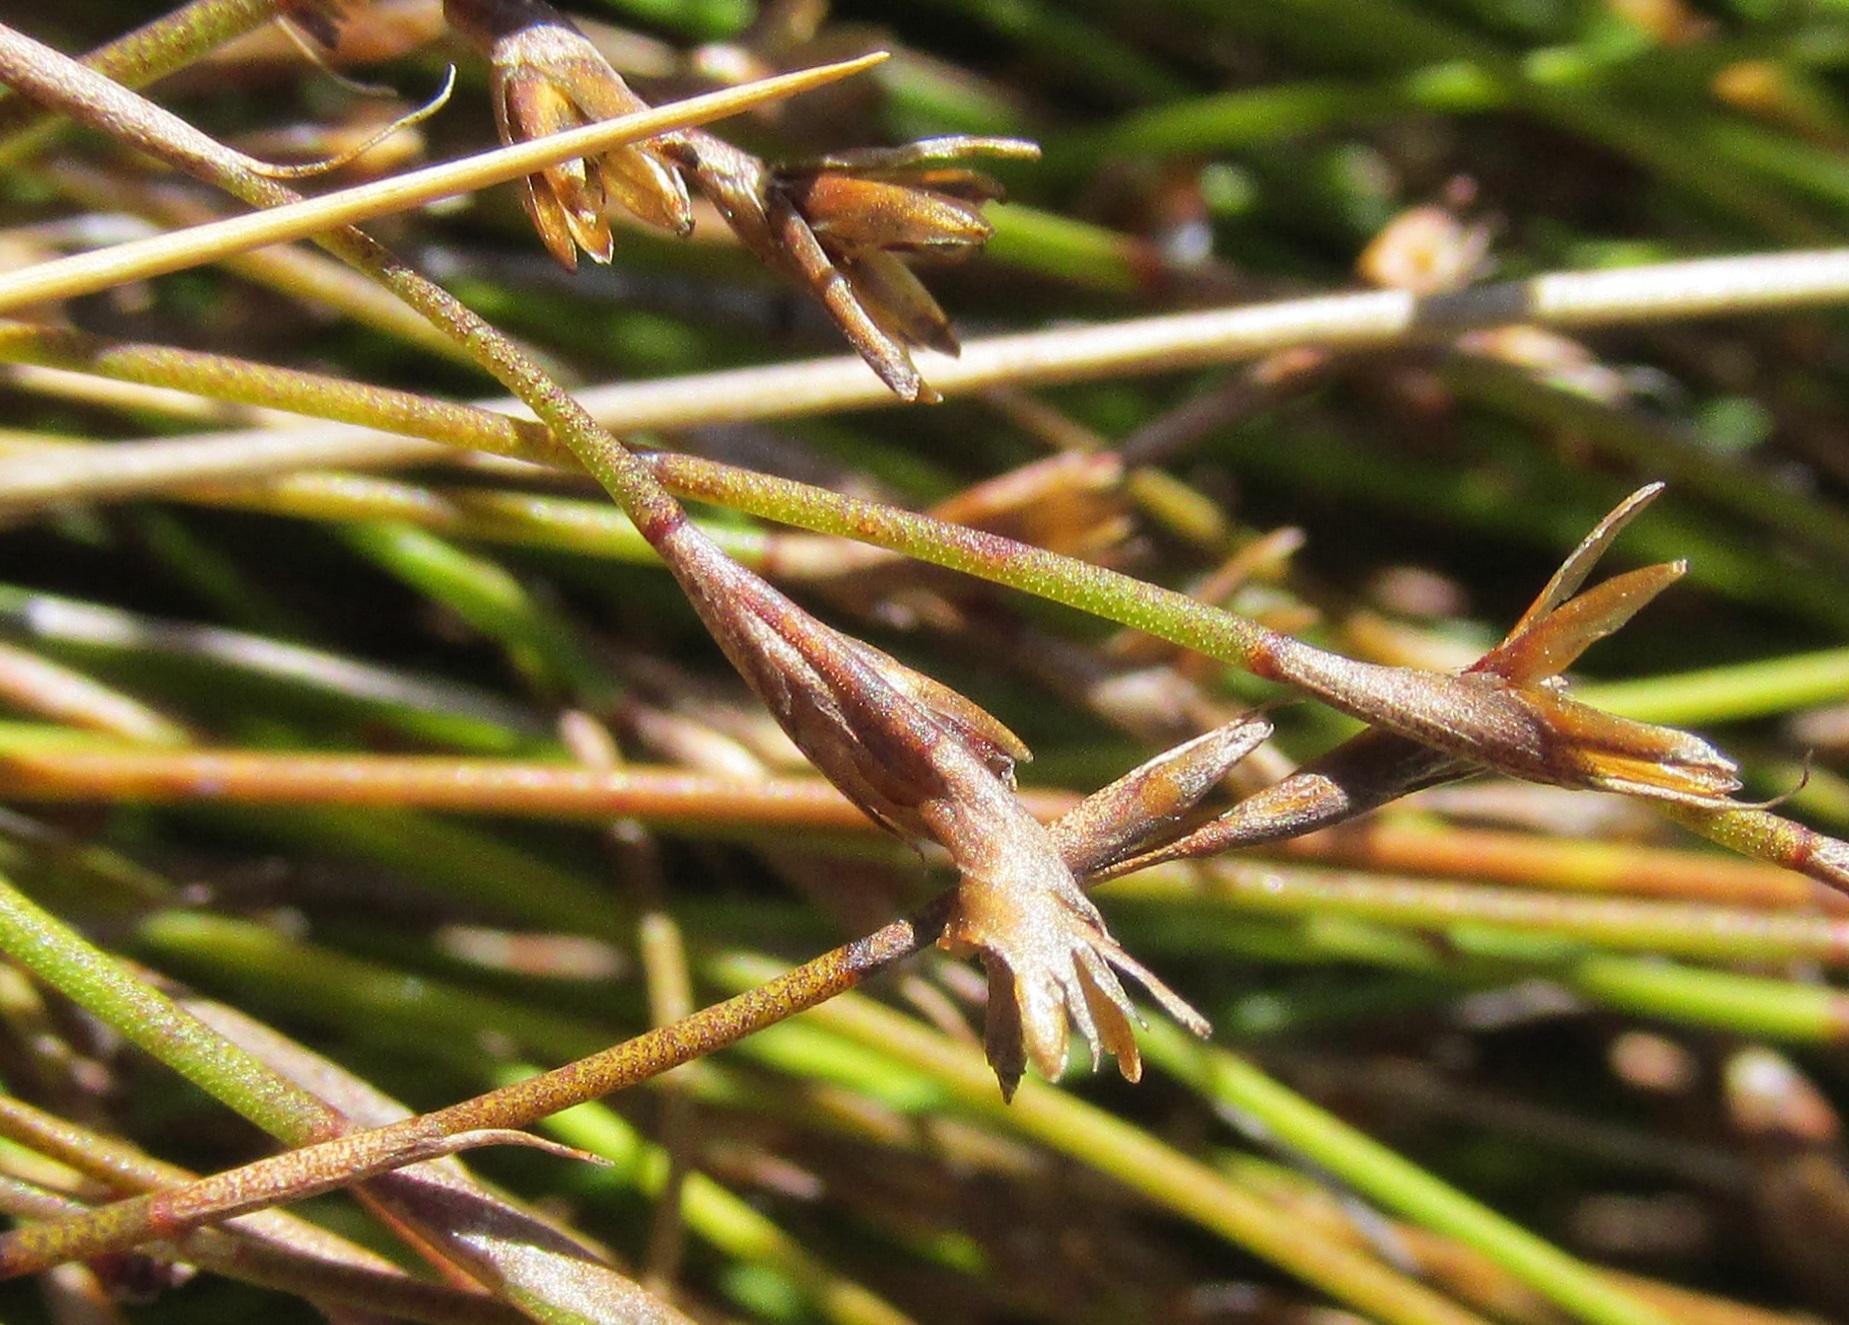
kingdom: Plantae
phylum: Tracheophyta
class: Liliopsida
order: Poales
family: Restionaceae
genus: Restio
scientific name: Restio debilis
